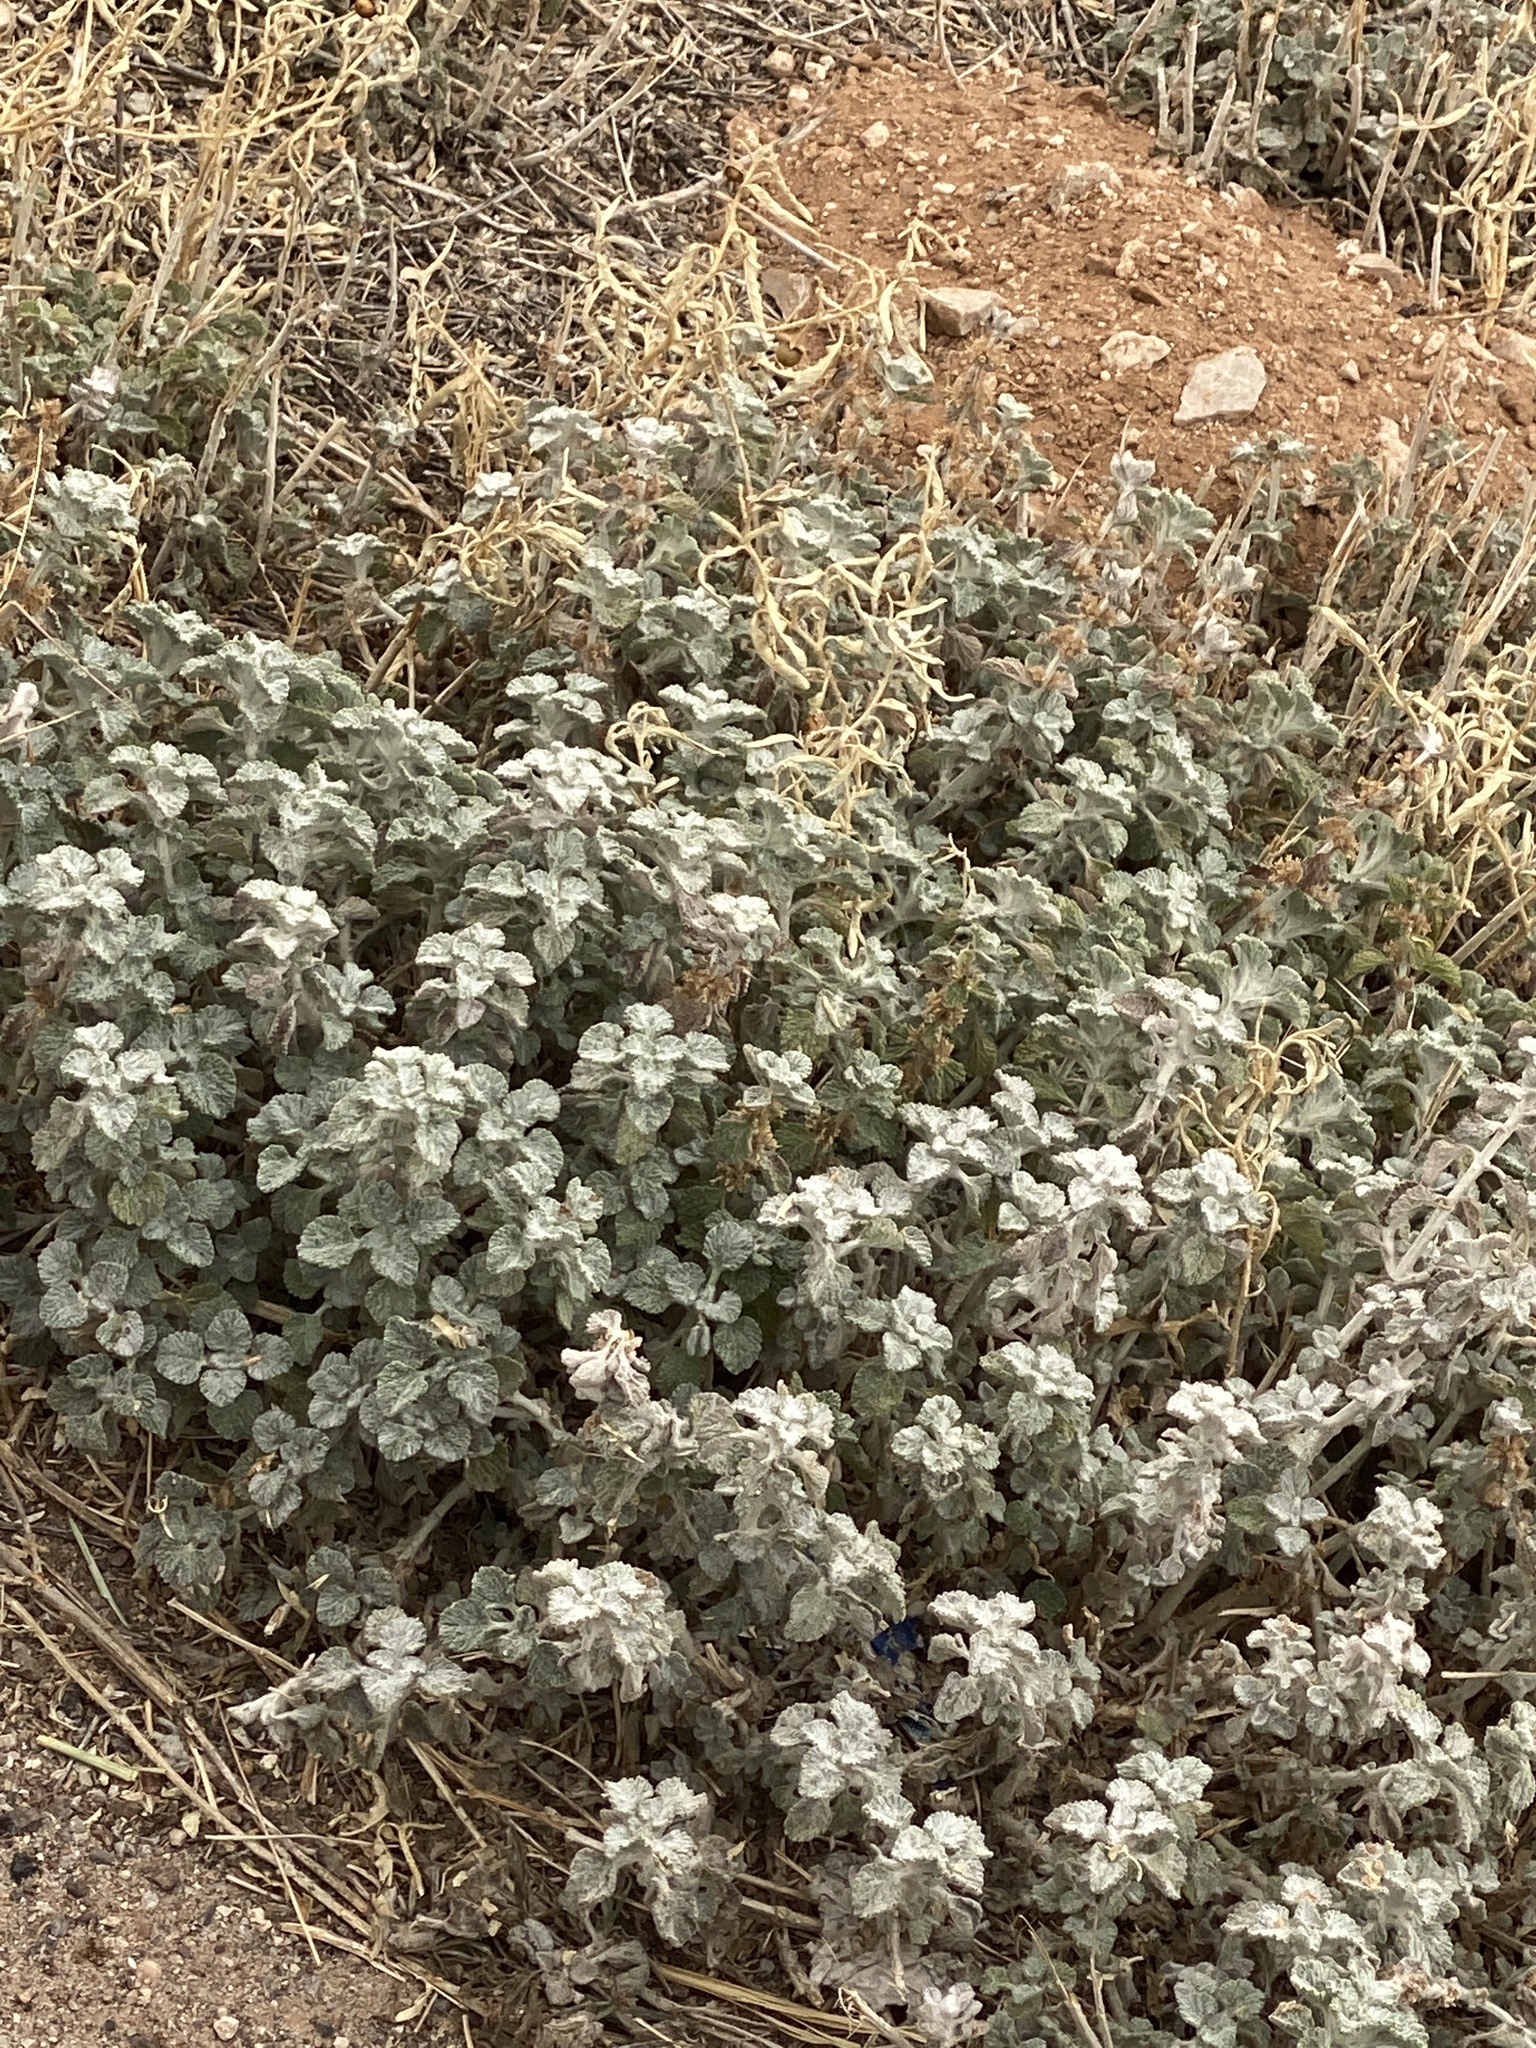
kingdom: Plantae
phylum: Tracheophyta
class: Magnoliopsida
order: Lamiales
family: Lamiaceae
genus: Marrubium
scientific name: Marrubium vulgare
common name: Horehound
